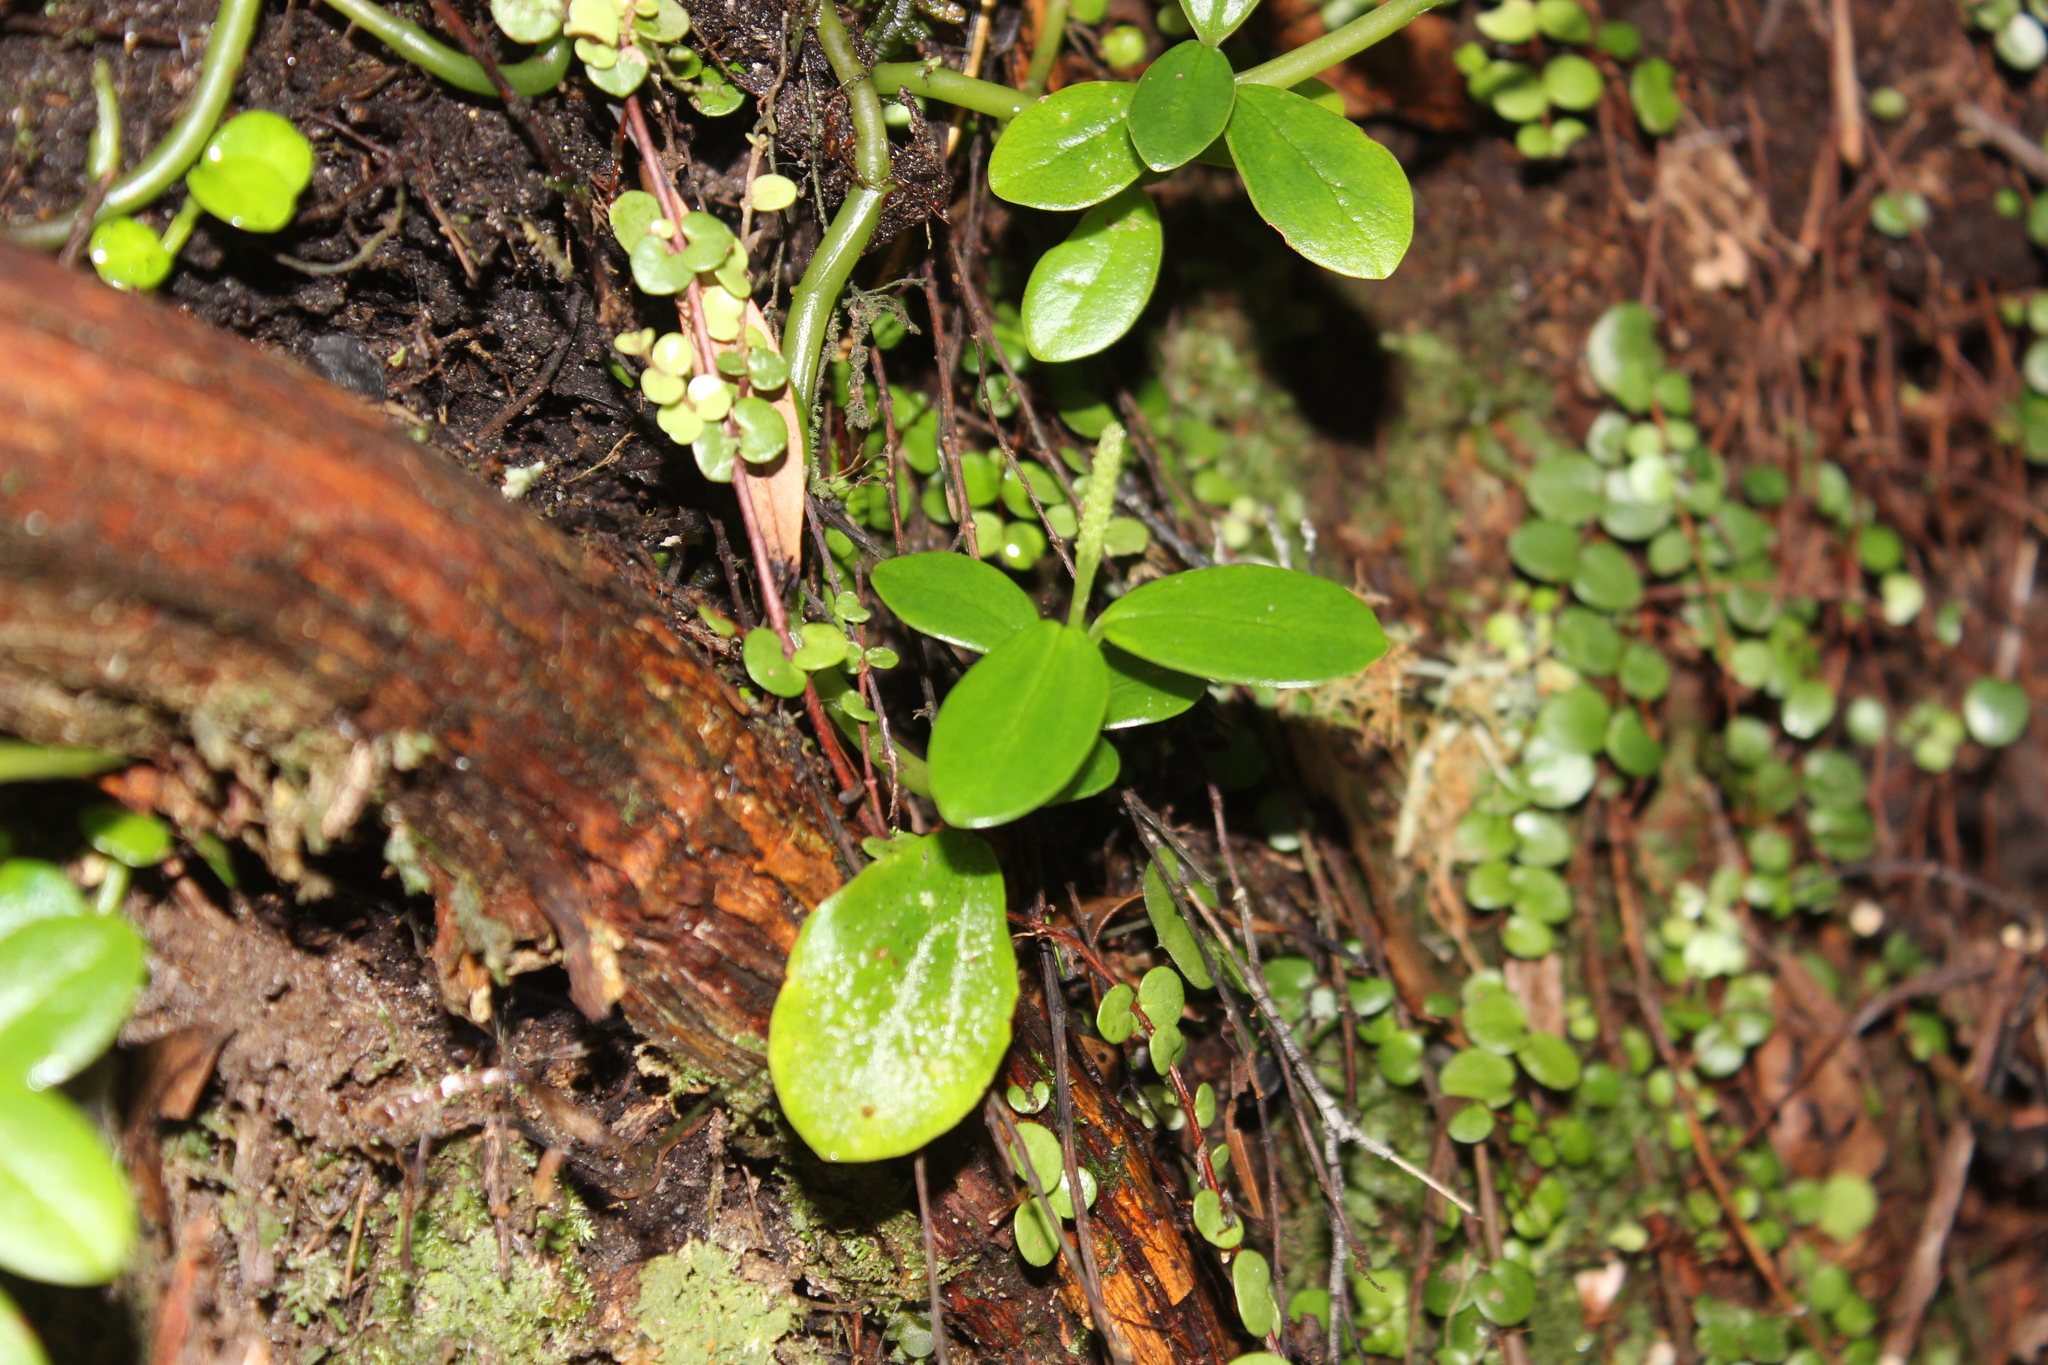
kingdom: Plantae
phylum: Tracheophyta
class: Magnoliopsida
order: Piperales
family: Piperaceae
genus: Peperomia
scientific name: Peperomia urvilleana
